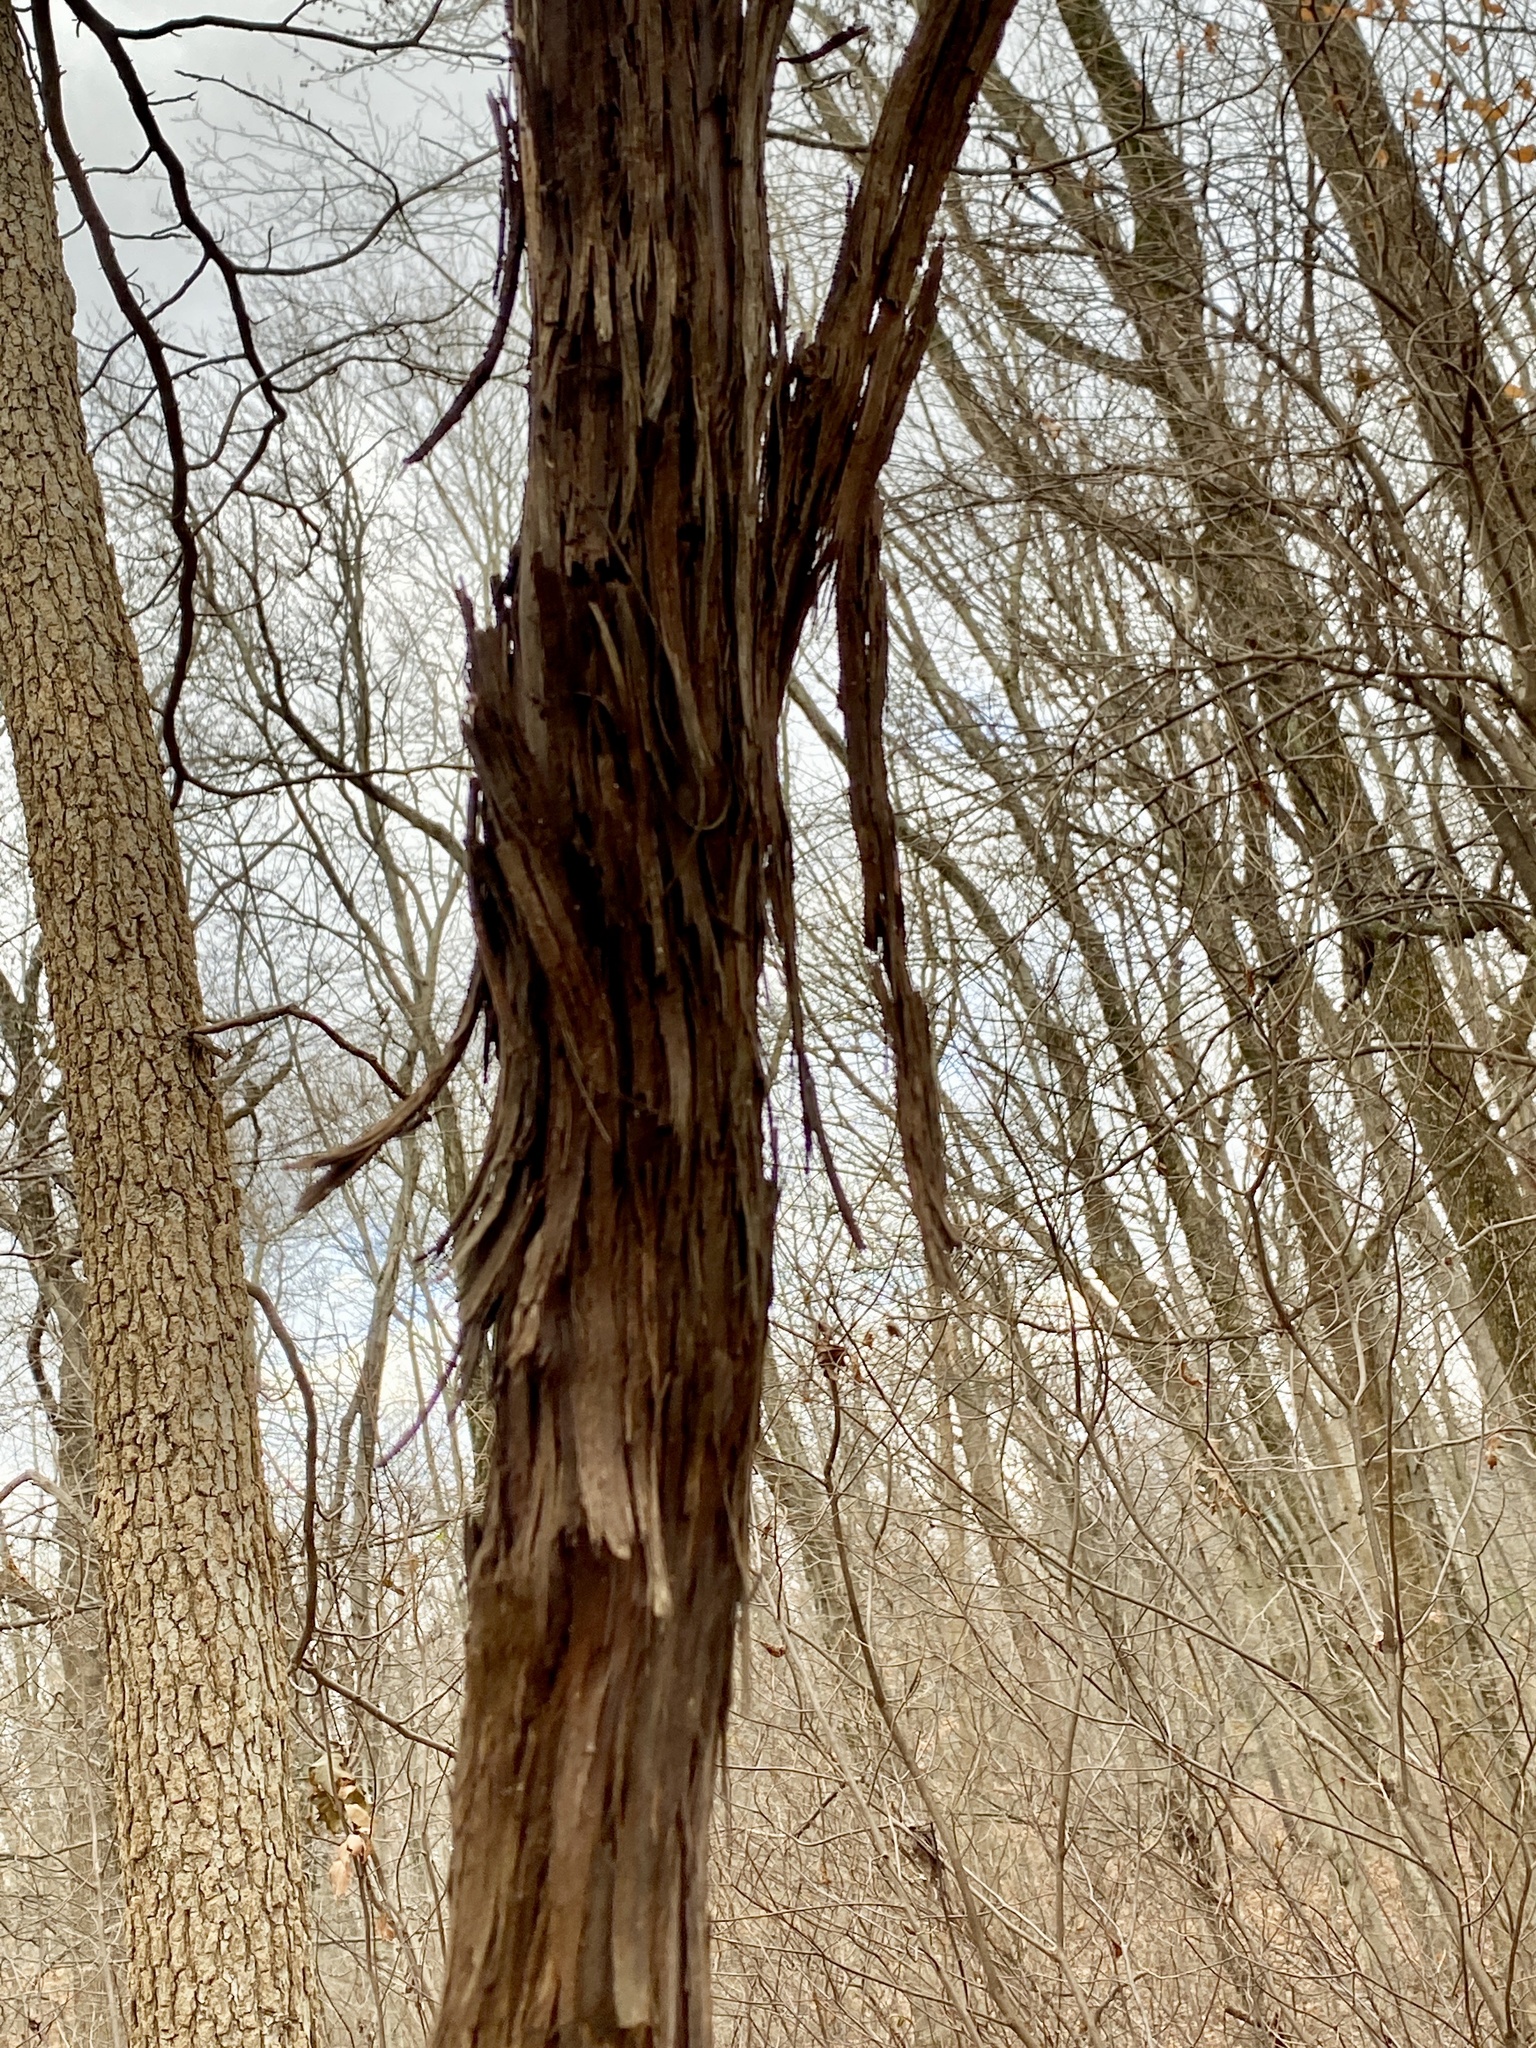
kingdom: Plantae
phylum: Tracheophyta
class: Magnoliopsida
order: Vitales
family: Vitaceae
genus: Vitis
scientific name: Vitis
